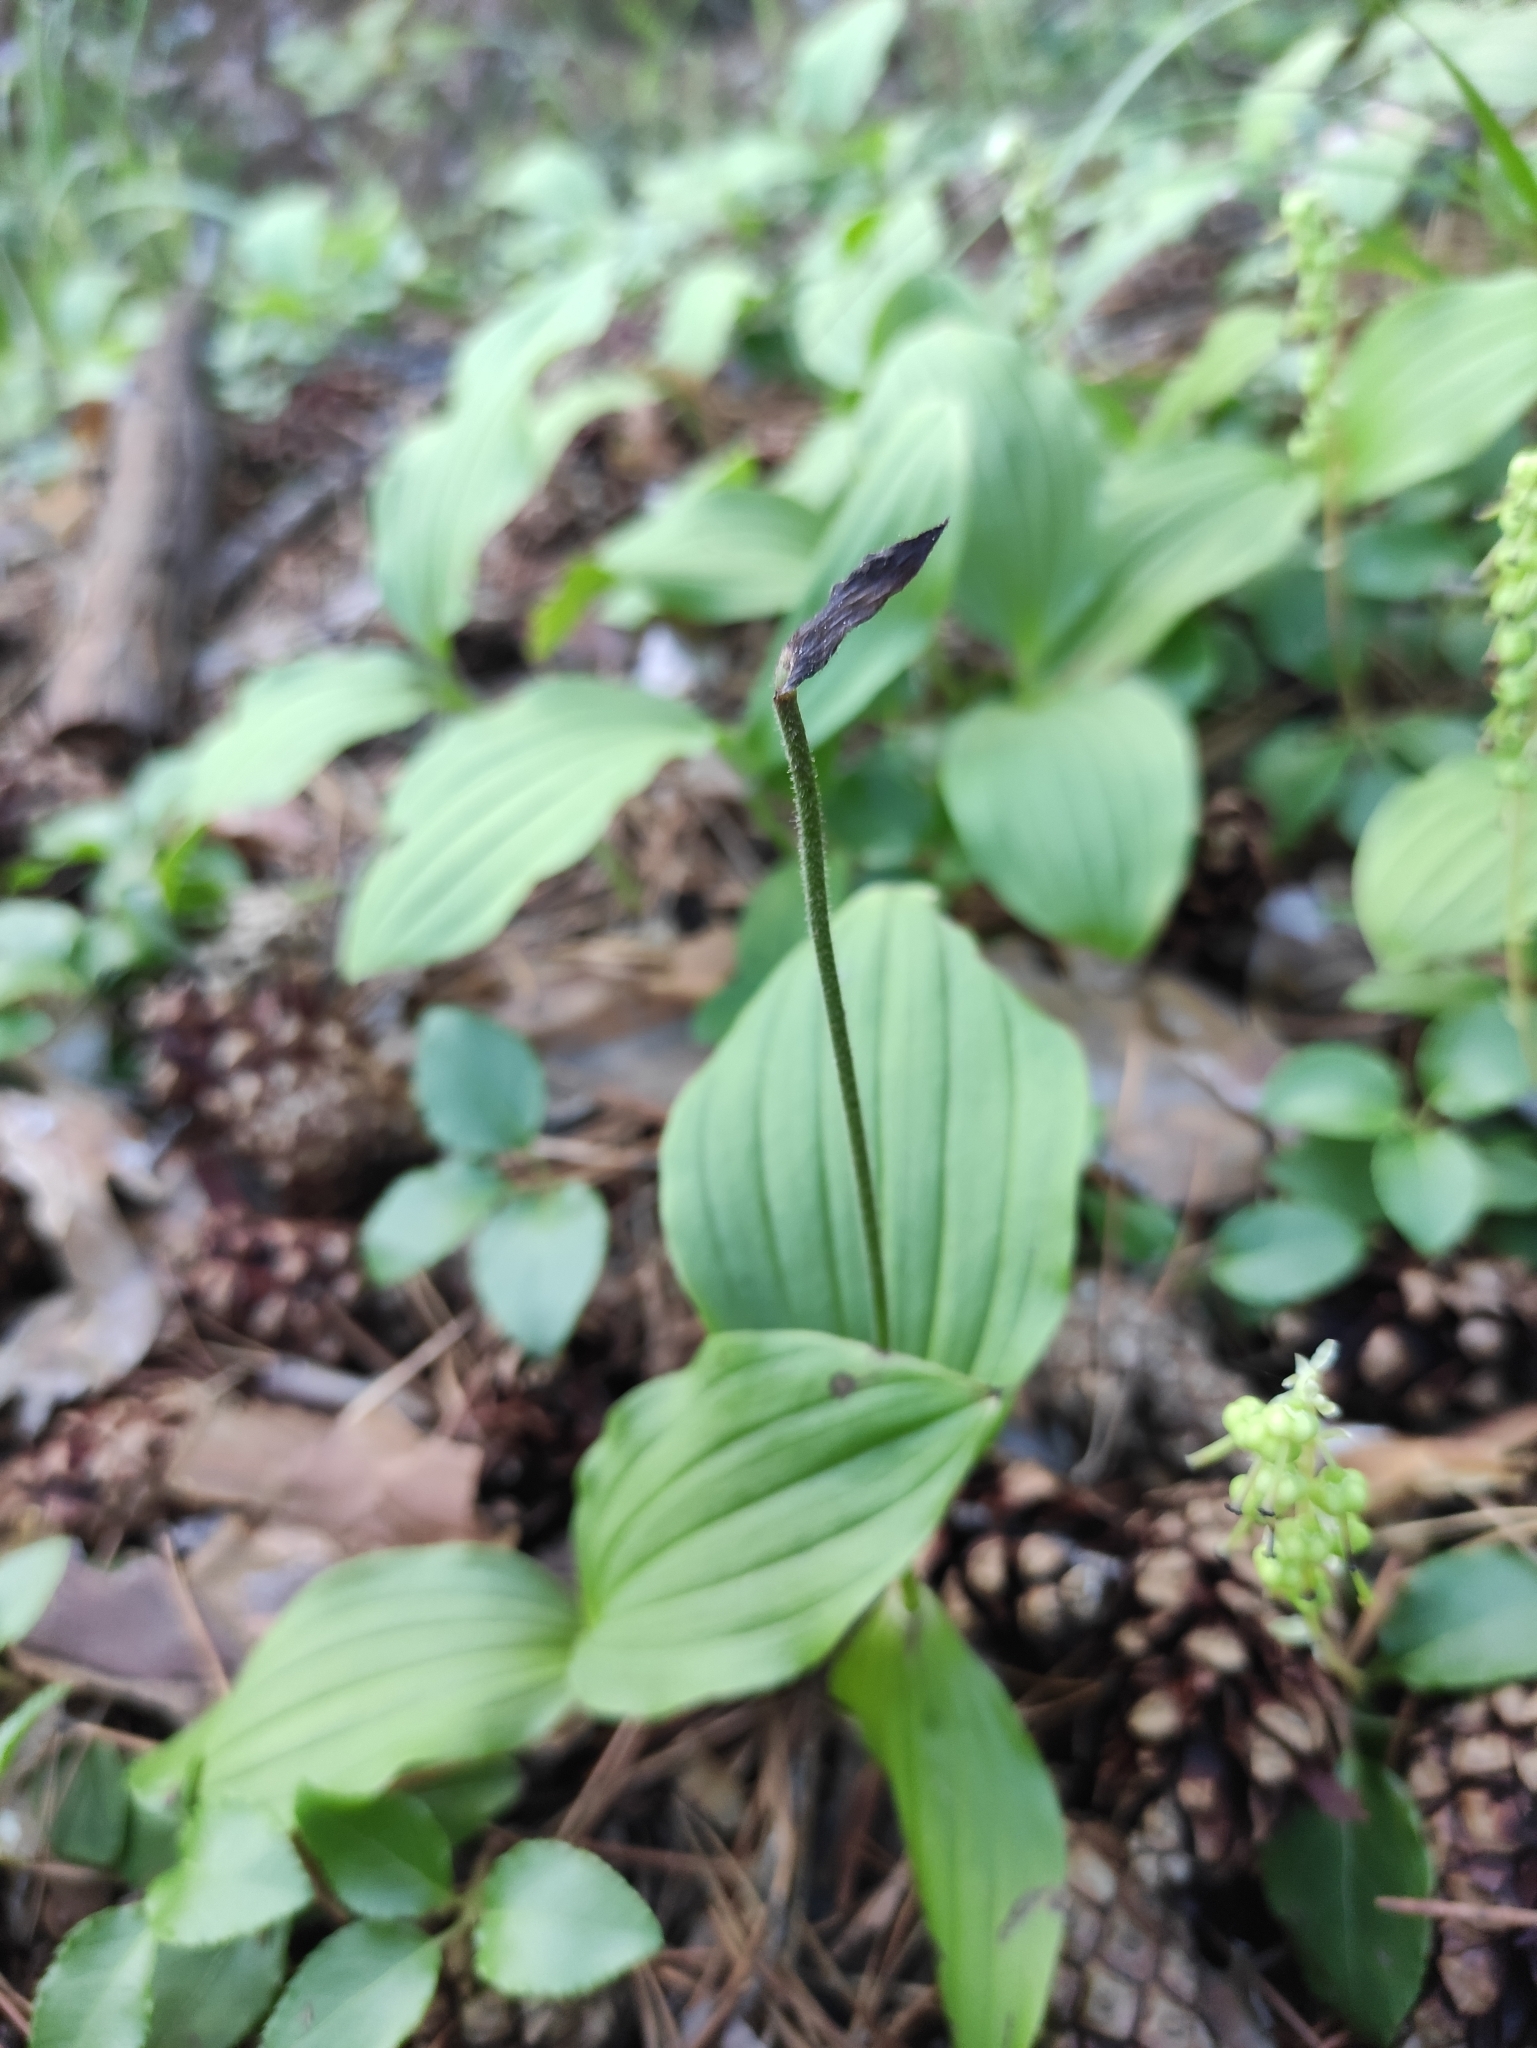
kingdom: Plantae
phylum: Tracheophyta
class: Liliopsida
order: Asparagales
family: Orchidaceae
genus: Cypripedium
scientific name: Cypripedium guttatum
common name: Pink lady slipper
